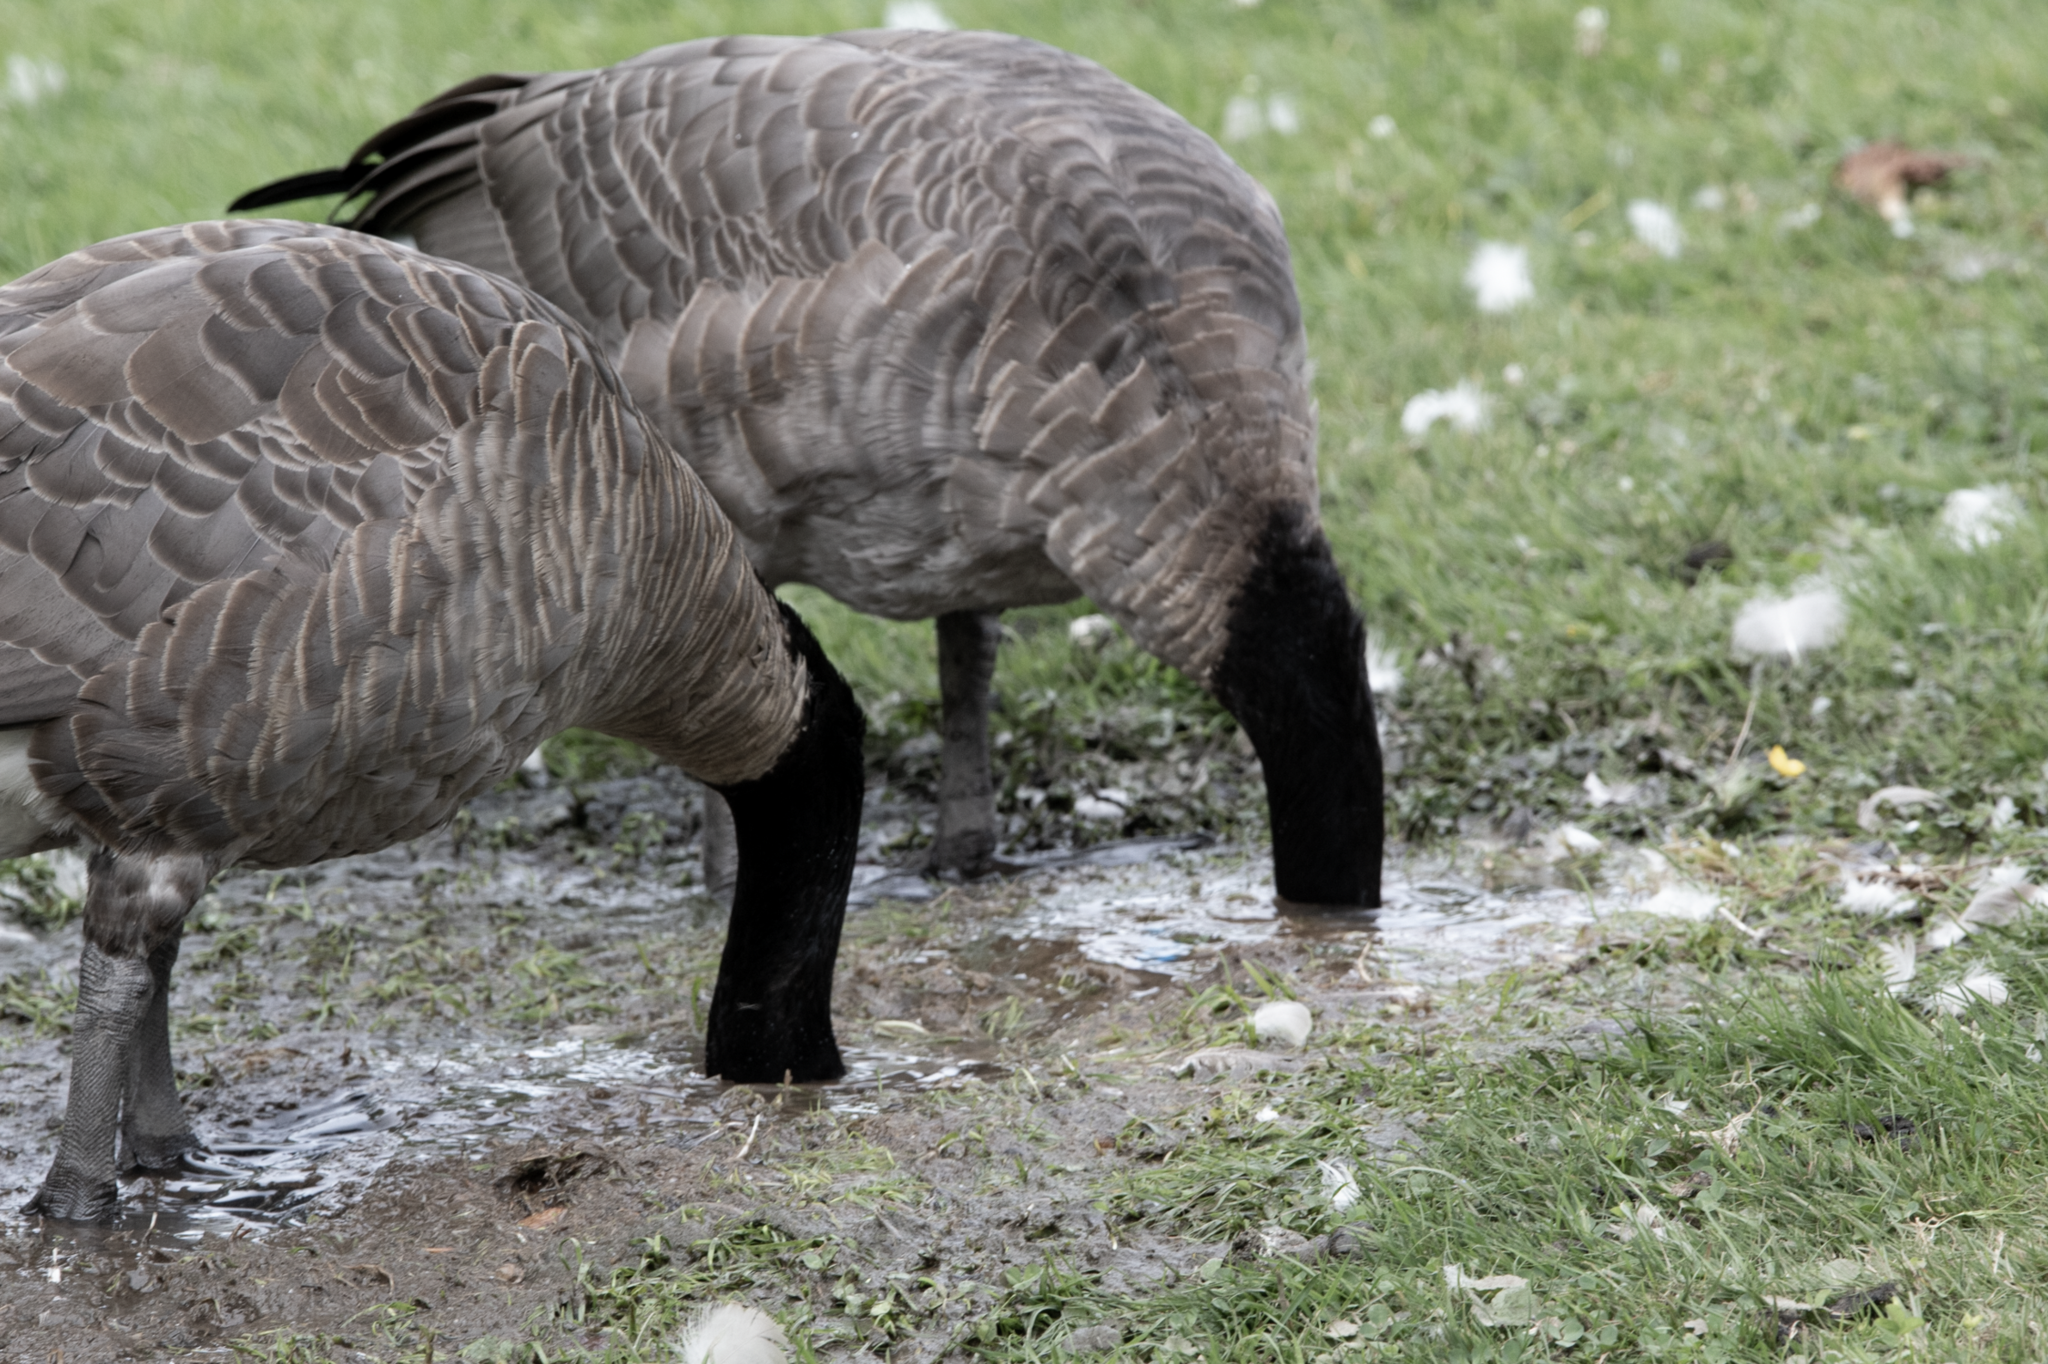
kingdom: Animalia
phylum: Chordata
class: Aves
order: Anseriformes
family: Anatidae
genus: Branta
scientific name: Branta canadensis
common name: Canada goose
